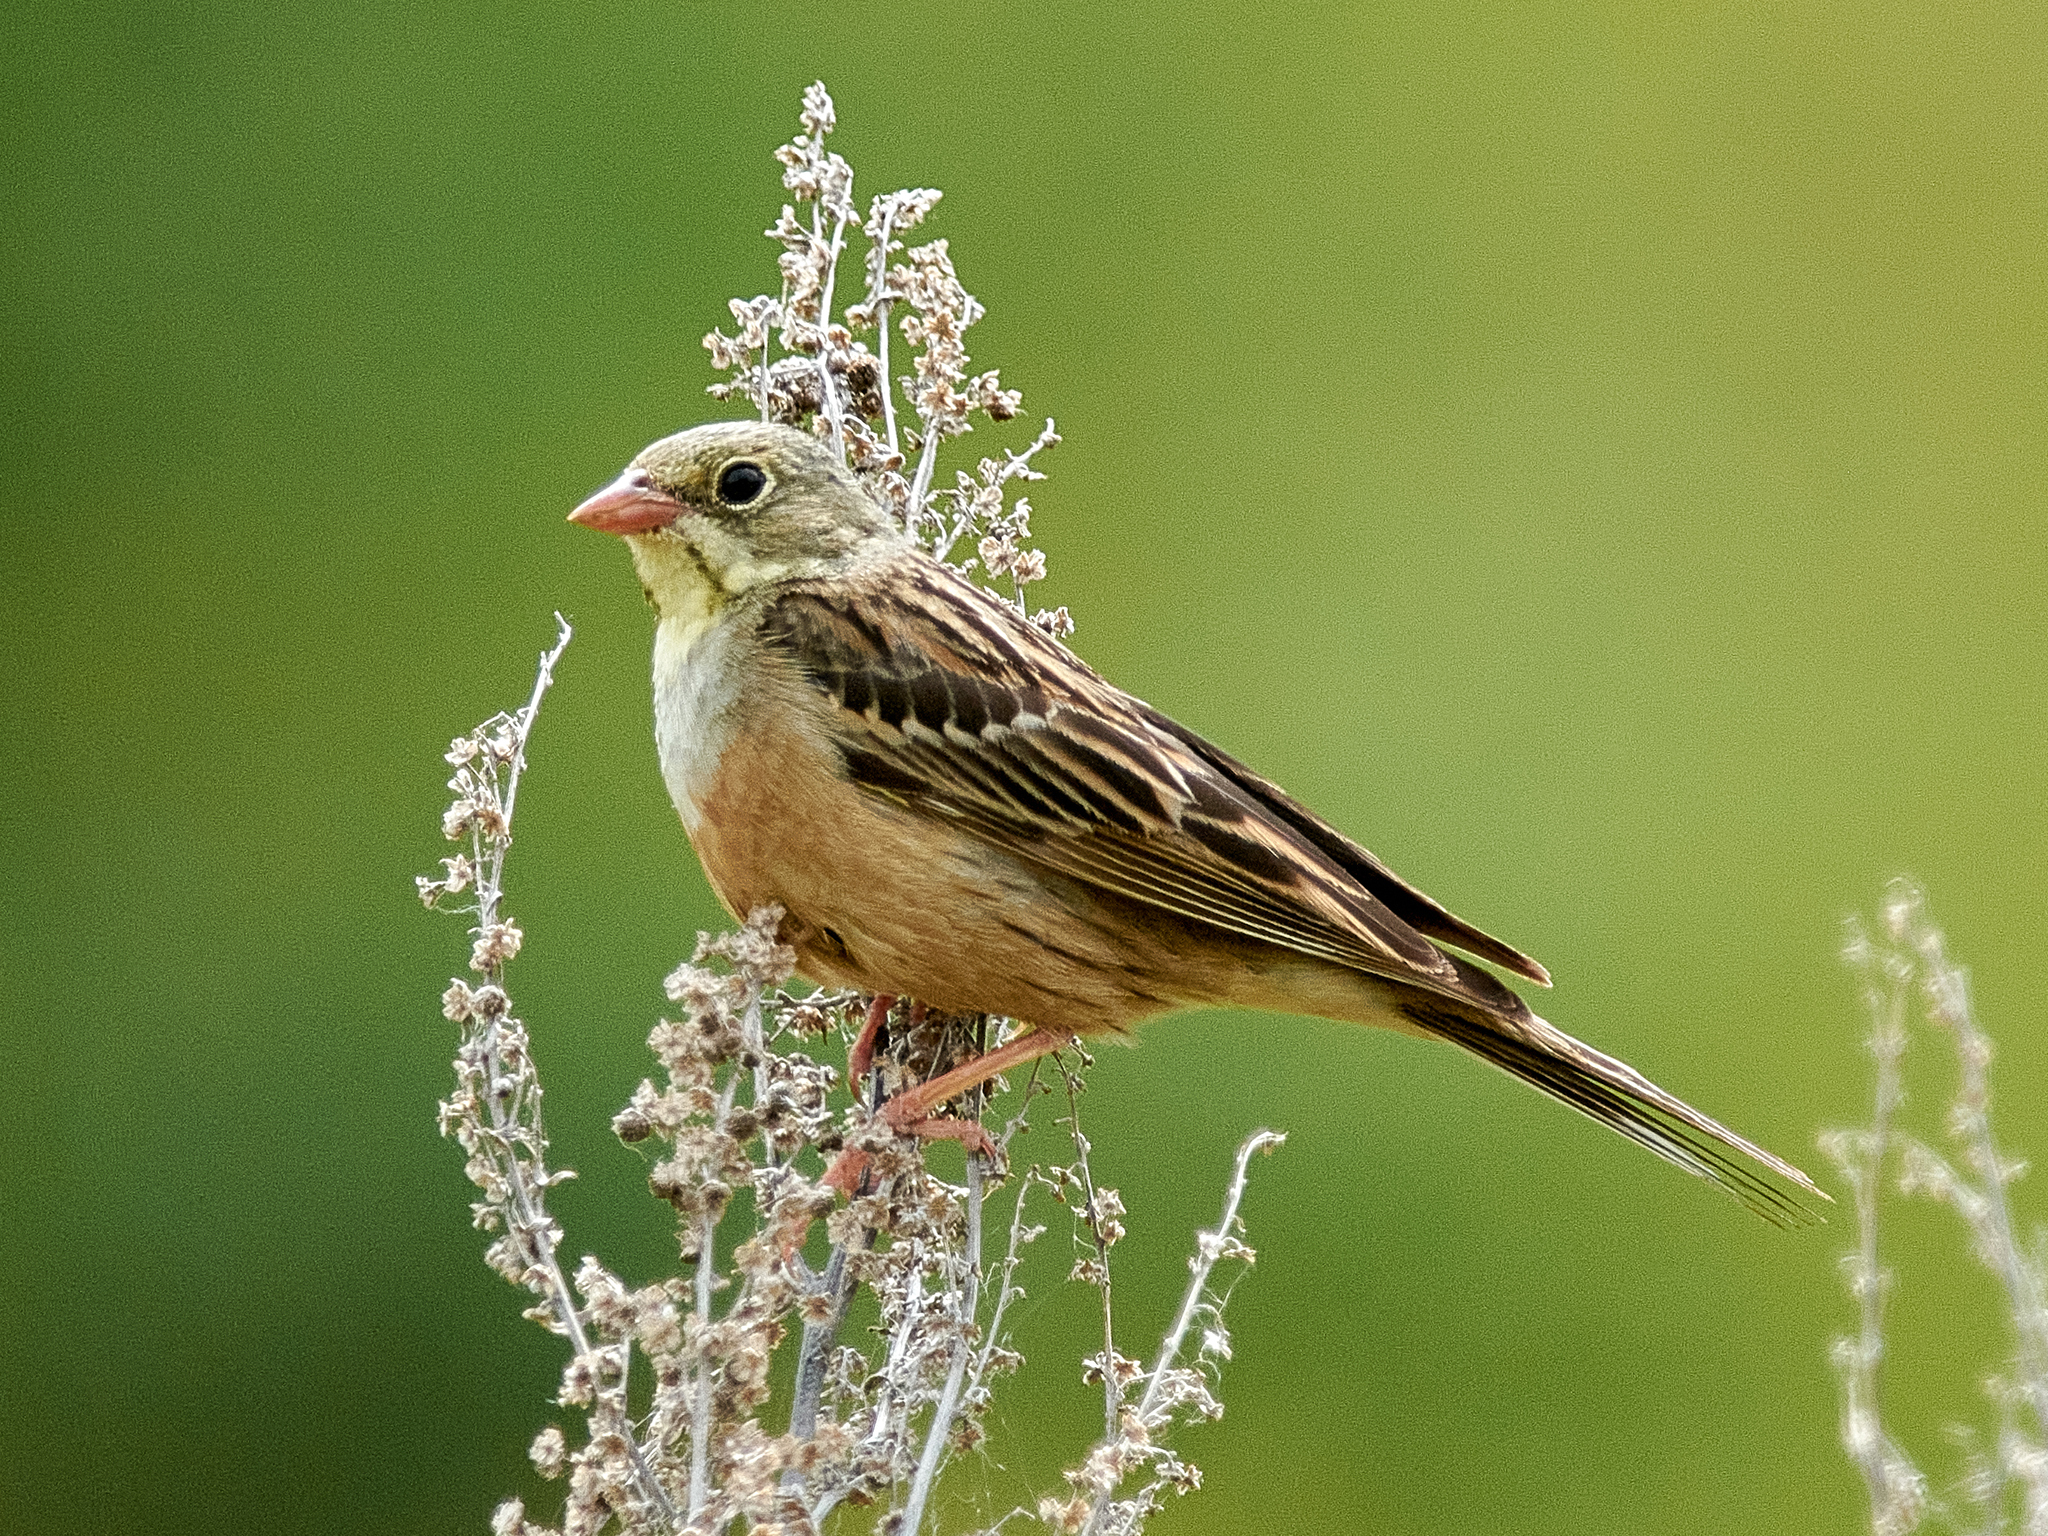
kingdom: Animalia
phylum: Chordata
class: Aves
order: Passeriformes
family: Emberizidae
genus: Emberiza
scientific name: Emberiza hortulana
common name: Ortolan bunting
